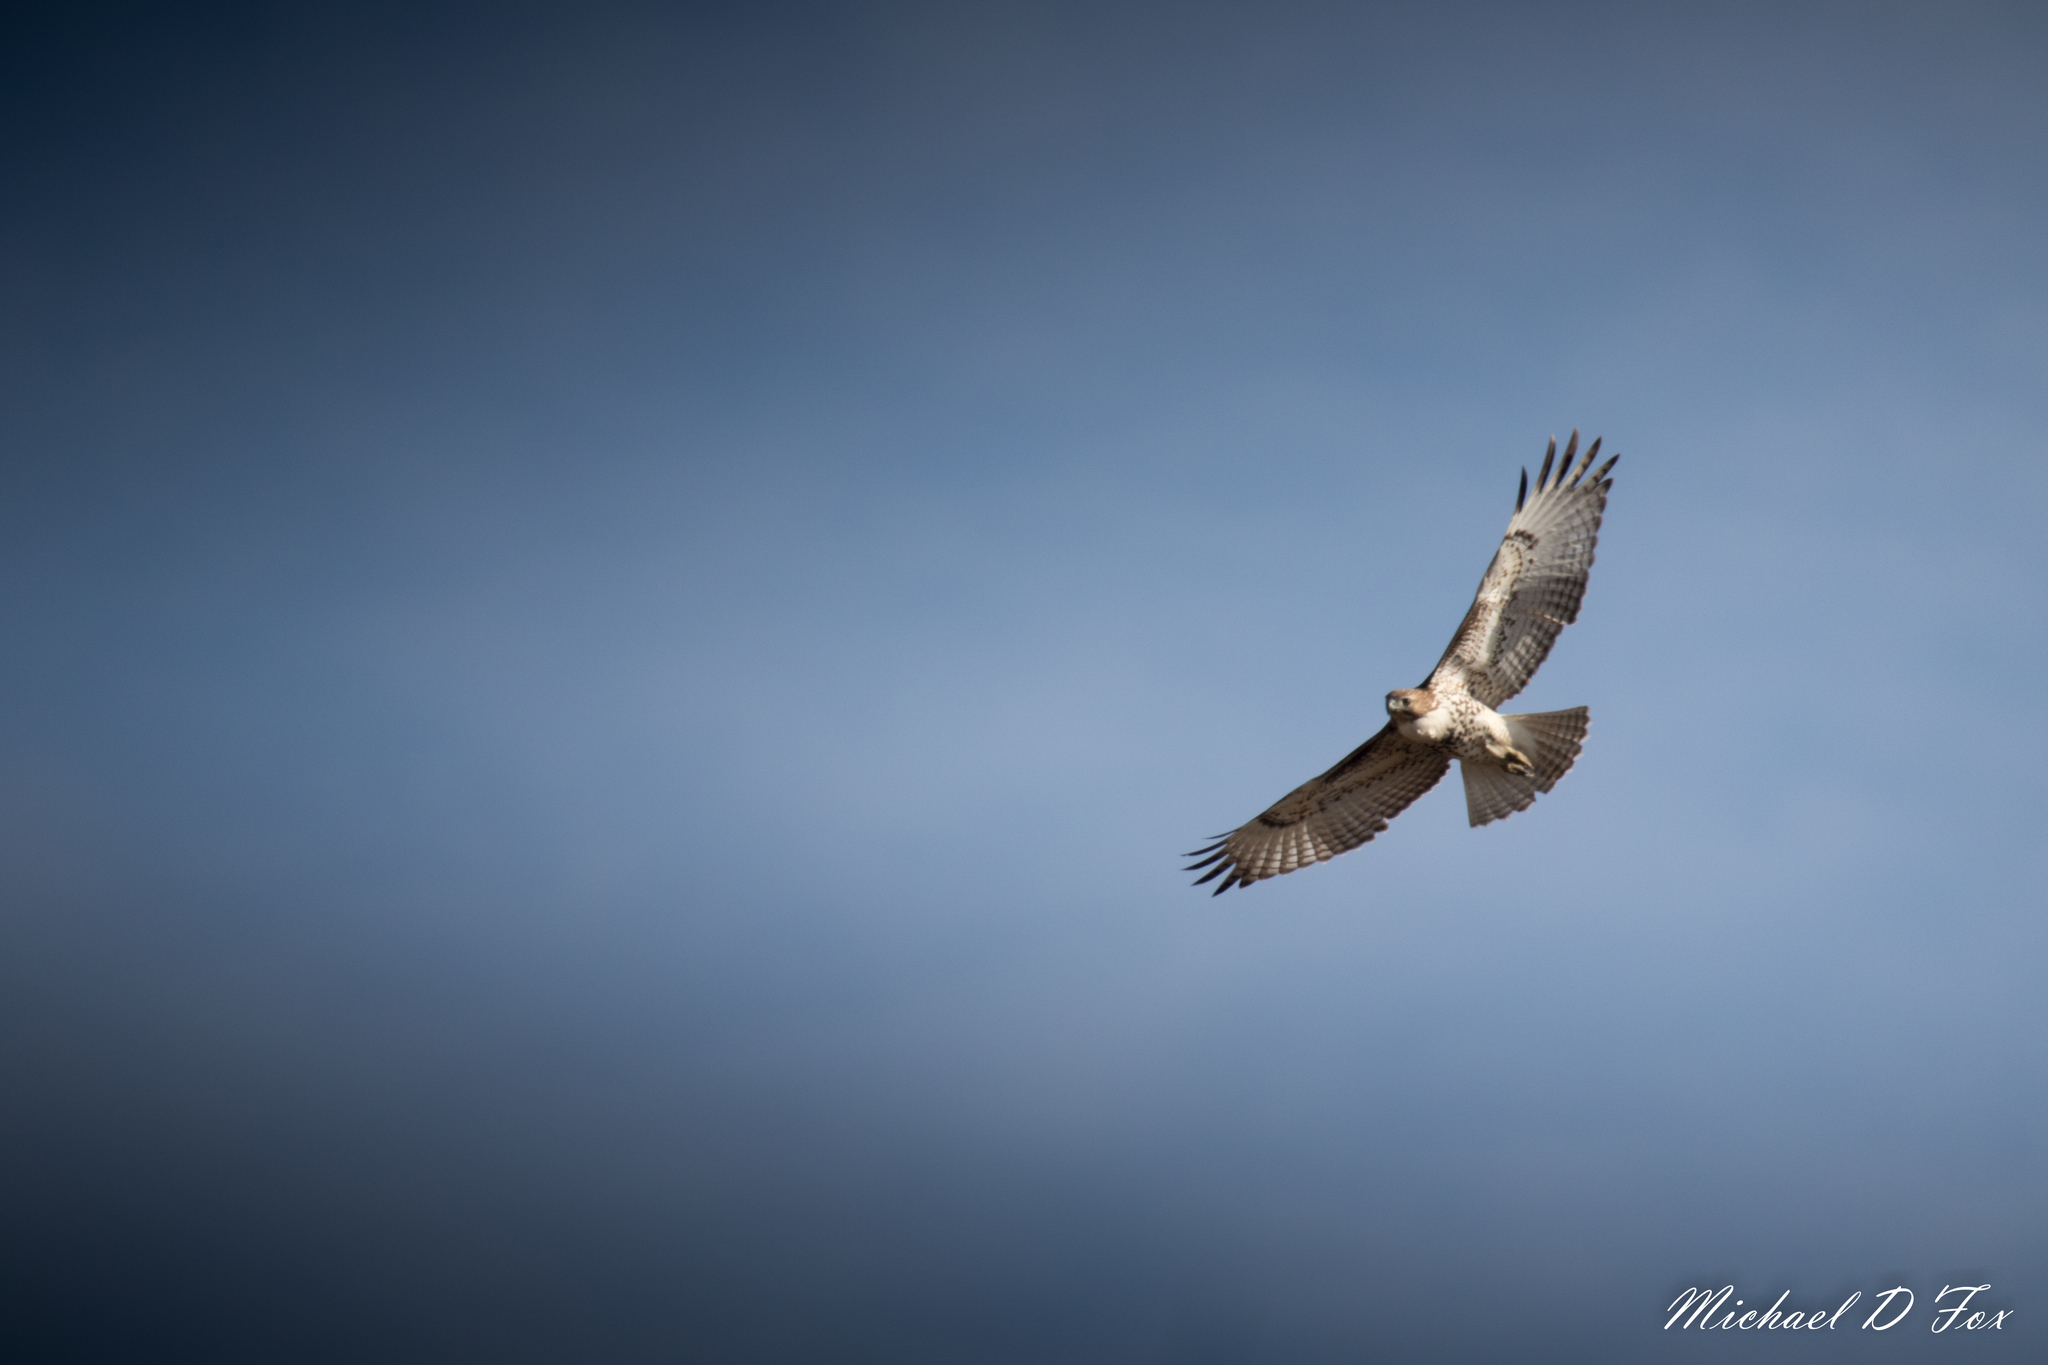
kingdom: Animalia
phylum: Chordata
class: Aves
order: Accipitriformes
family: Accipitridae
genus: Buteo
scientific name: Buteo jamaicensis
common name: Red-tailed hawk
